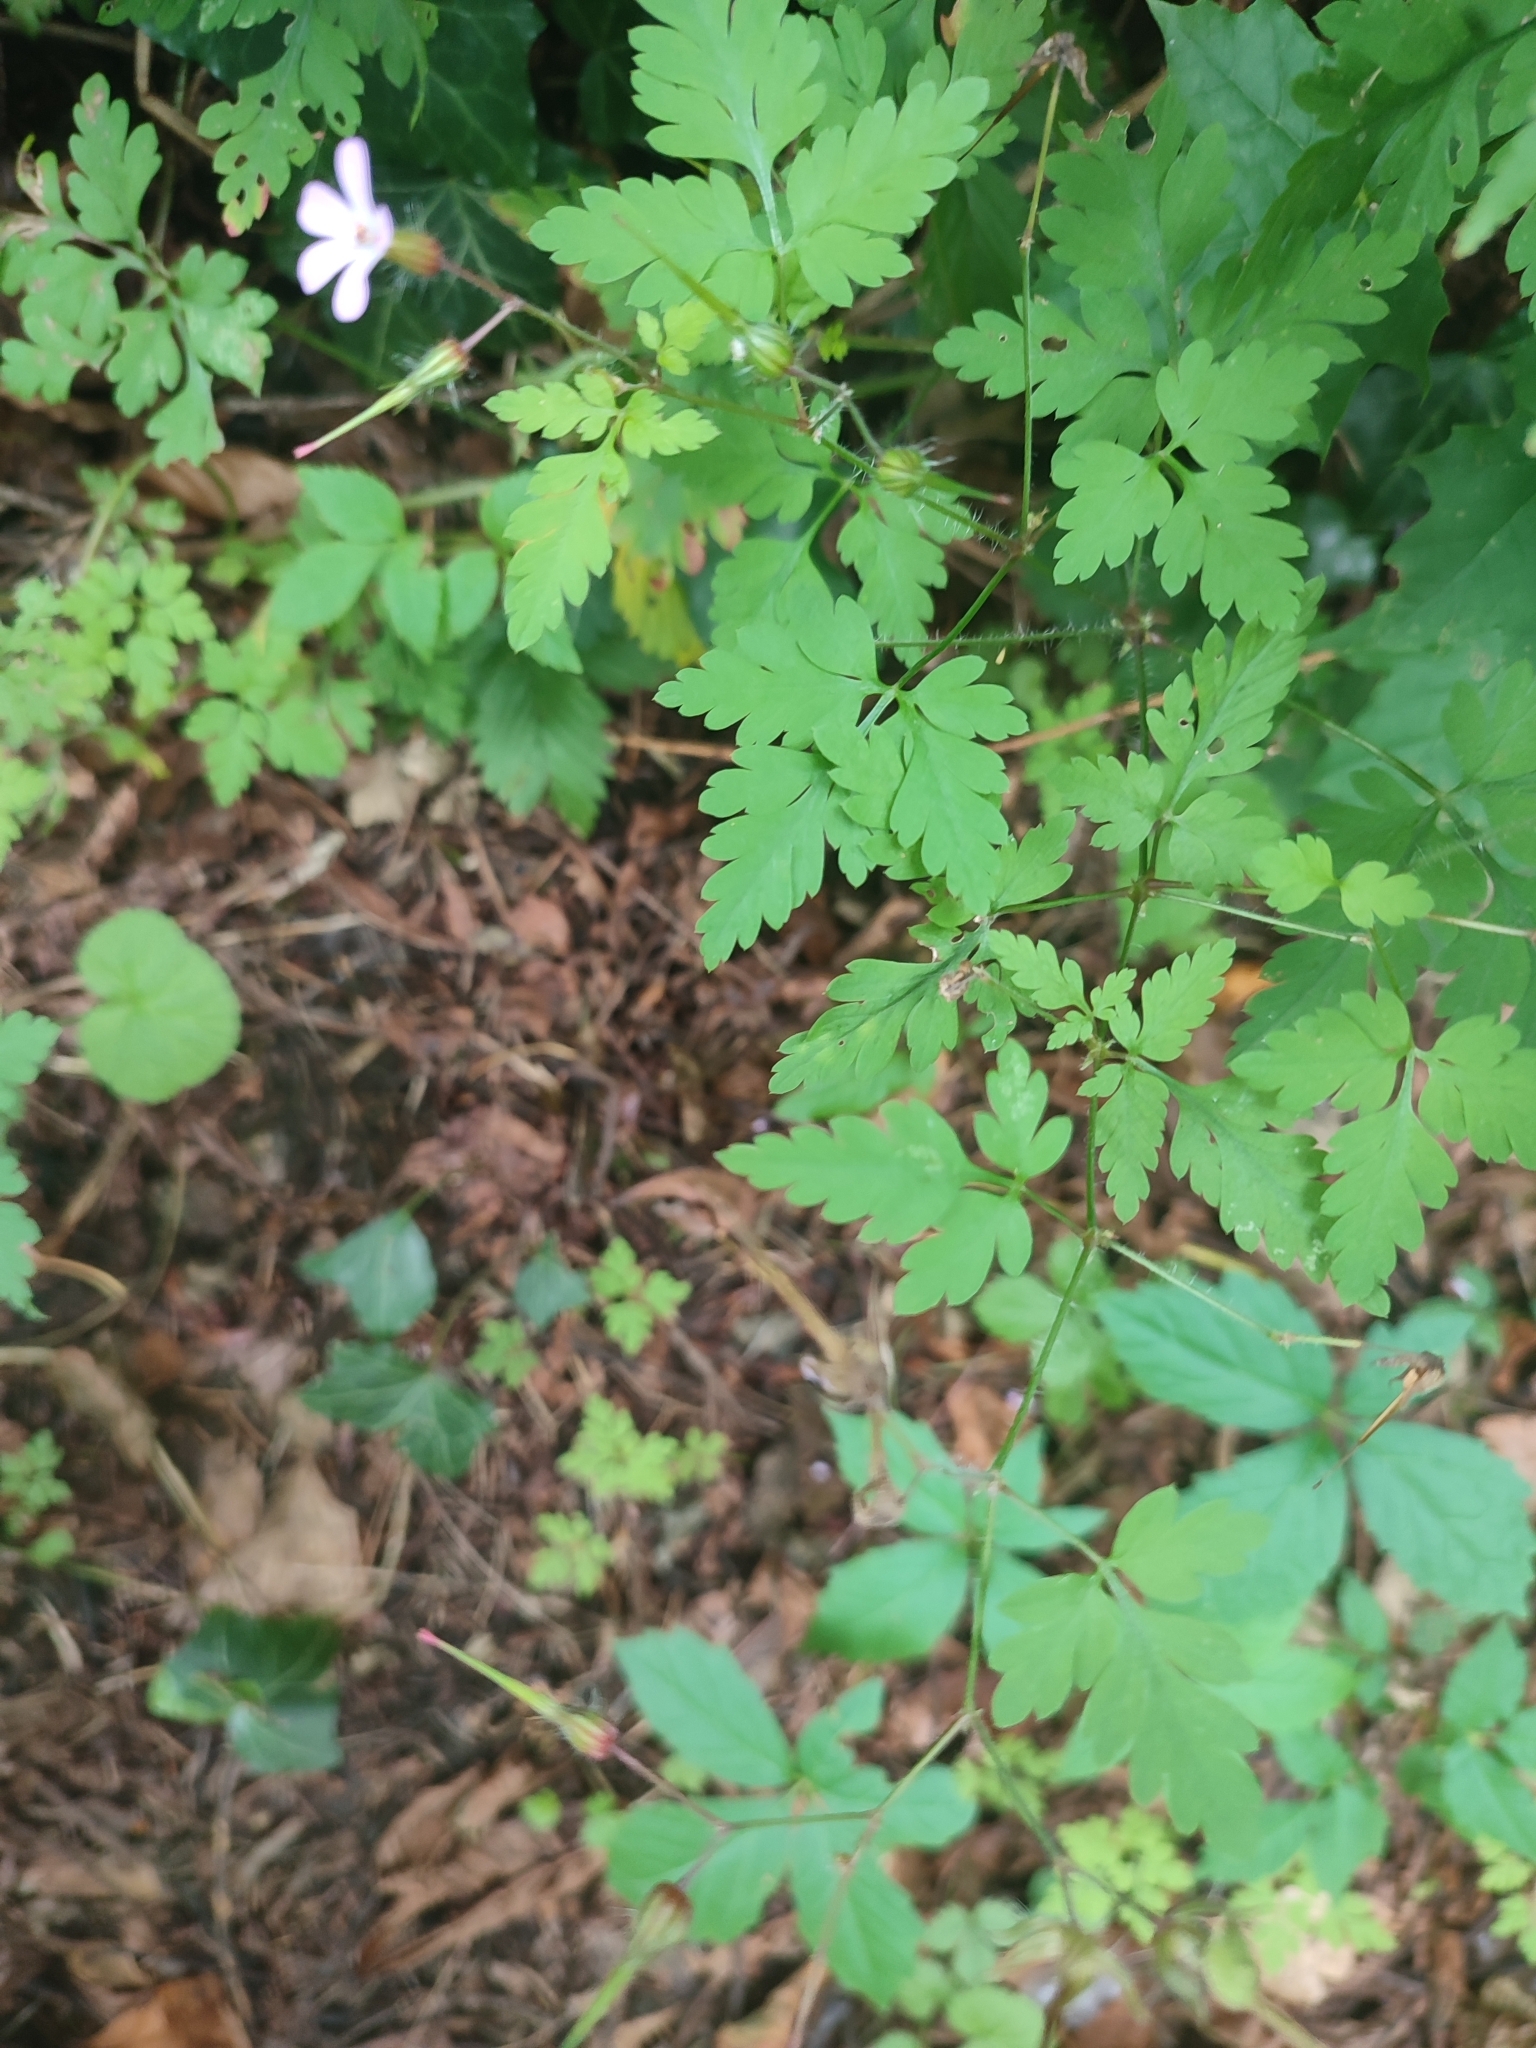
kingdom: Plantae
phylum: Tracheophyta
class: Magnoliopsida
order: Geraniales
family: Geraniaceae
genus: Geranium
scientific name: Geranium robertianum
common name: Herb-robert
